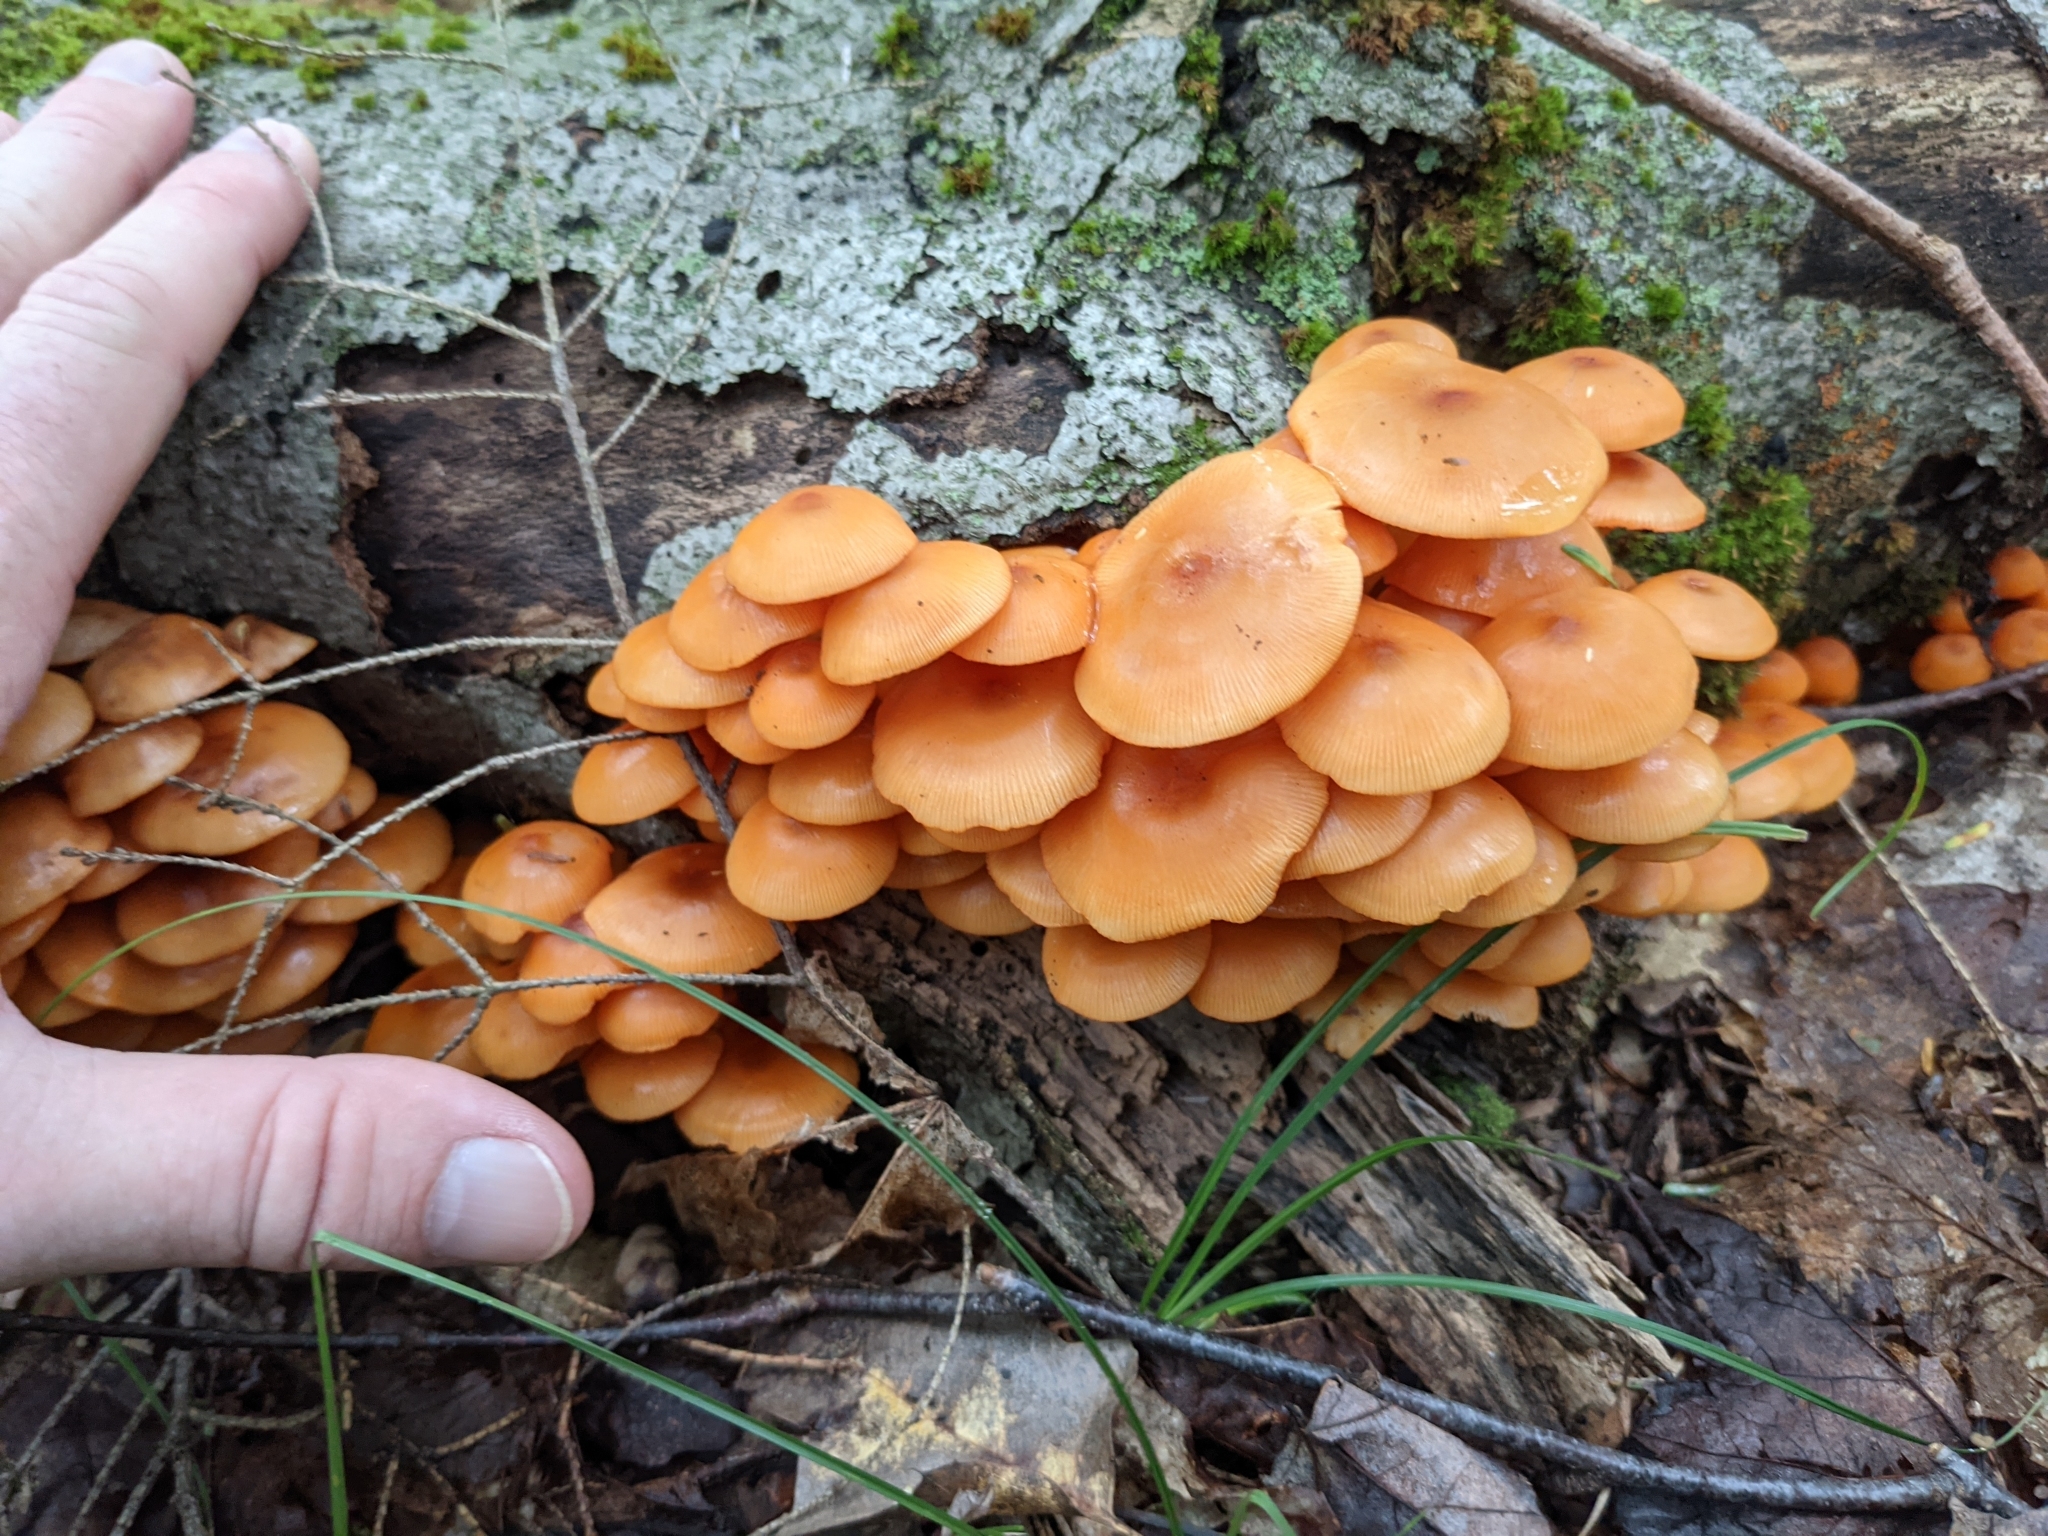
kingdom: Fungi
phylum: Basidiomycota
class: Agaricomycetes
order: Agaricales
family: Mycenaceae
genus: Mycena
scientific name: Mycena leaiana
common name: Orange mycena
